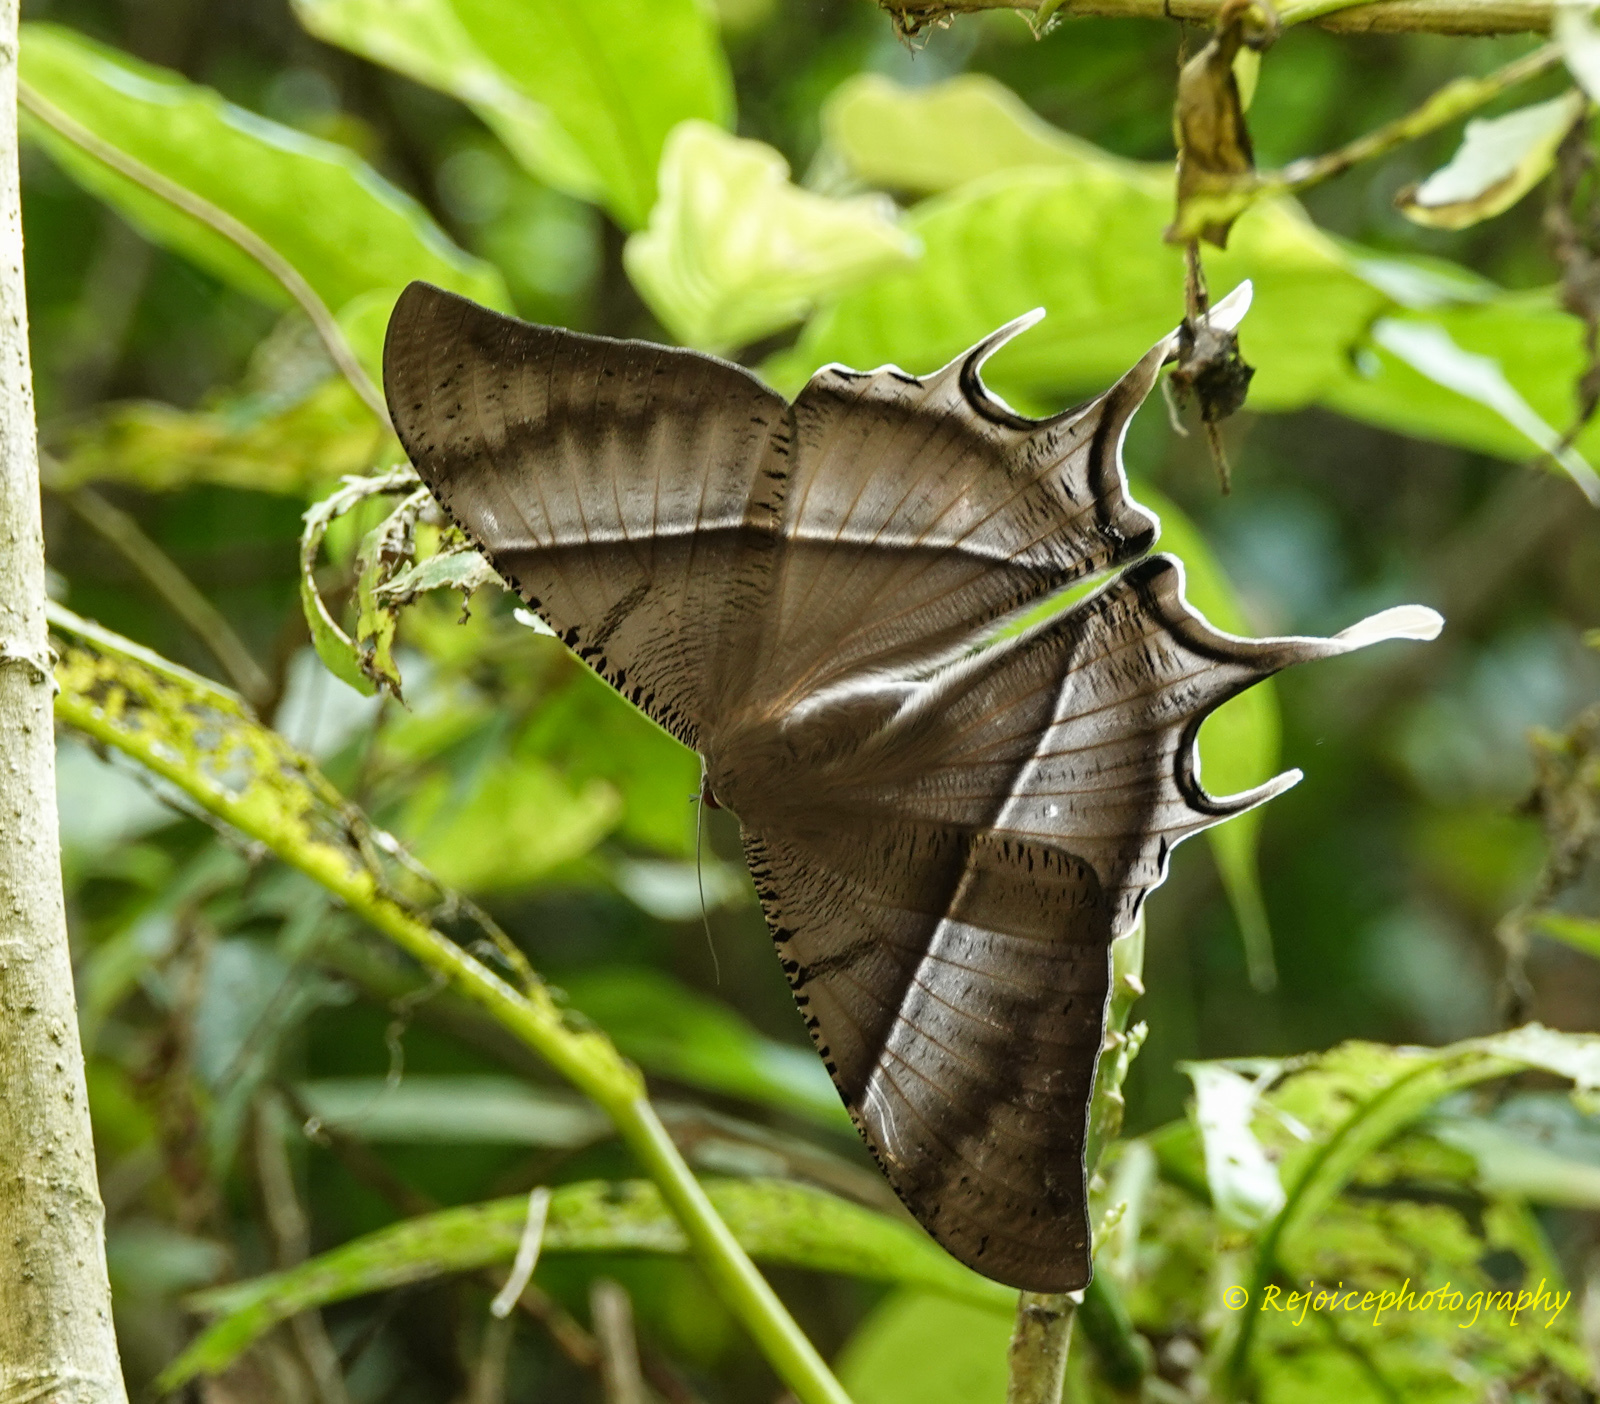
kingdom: Animalia
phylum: Arthropoda
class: Insecta
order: Lepidoptera
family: Uraniidae
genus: Lyssa
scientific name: Lyssa zampa
